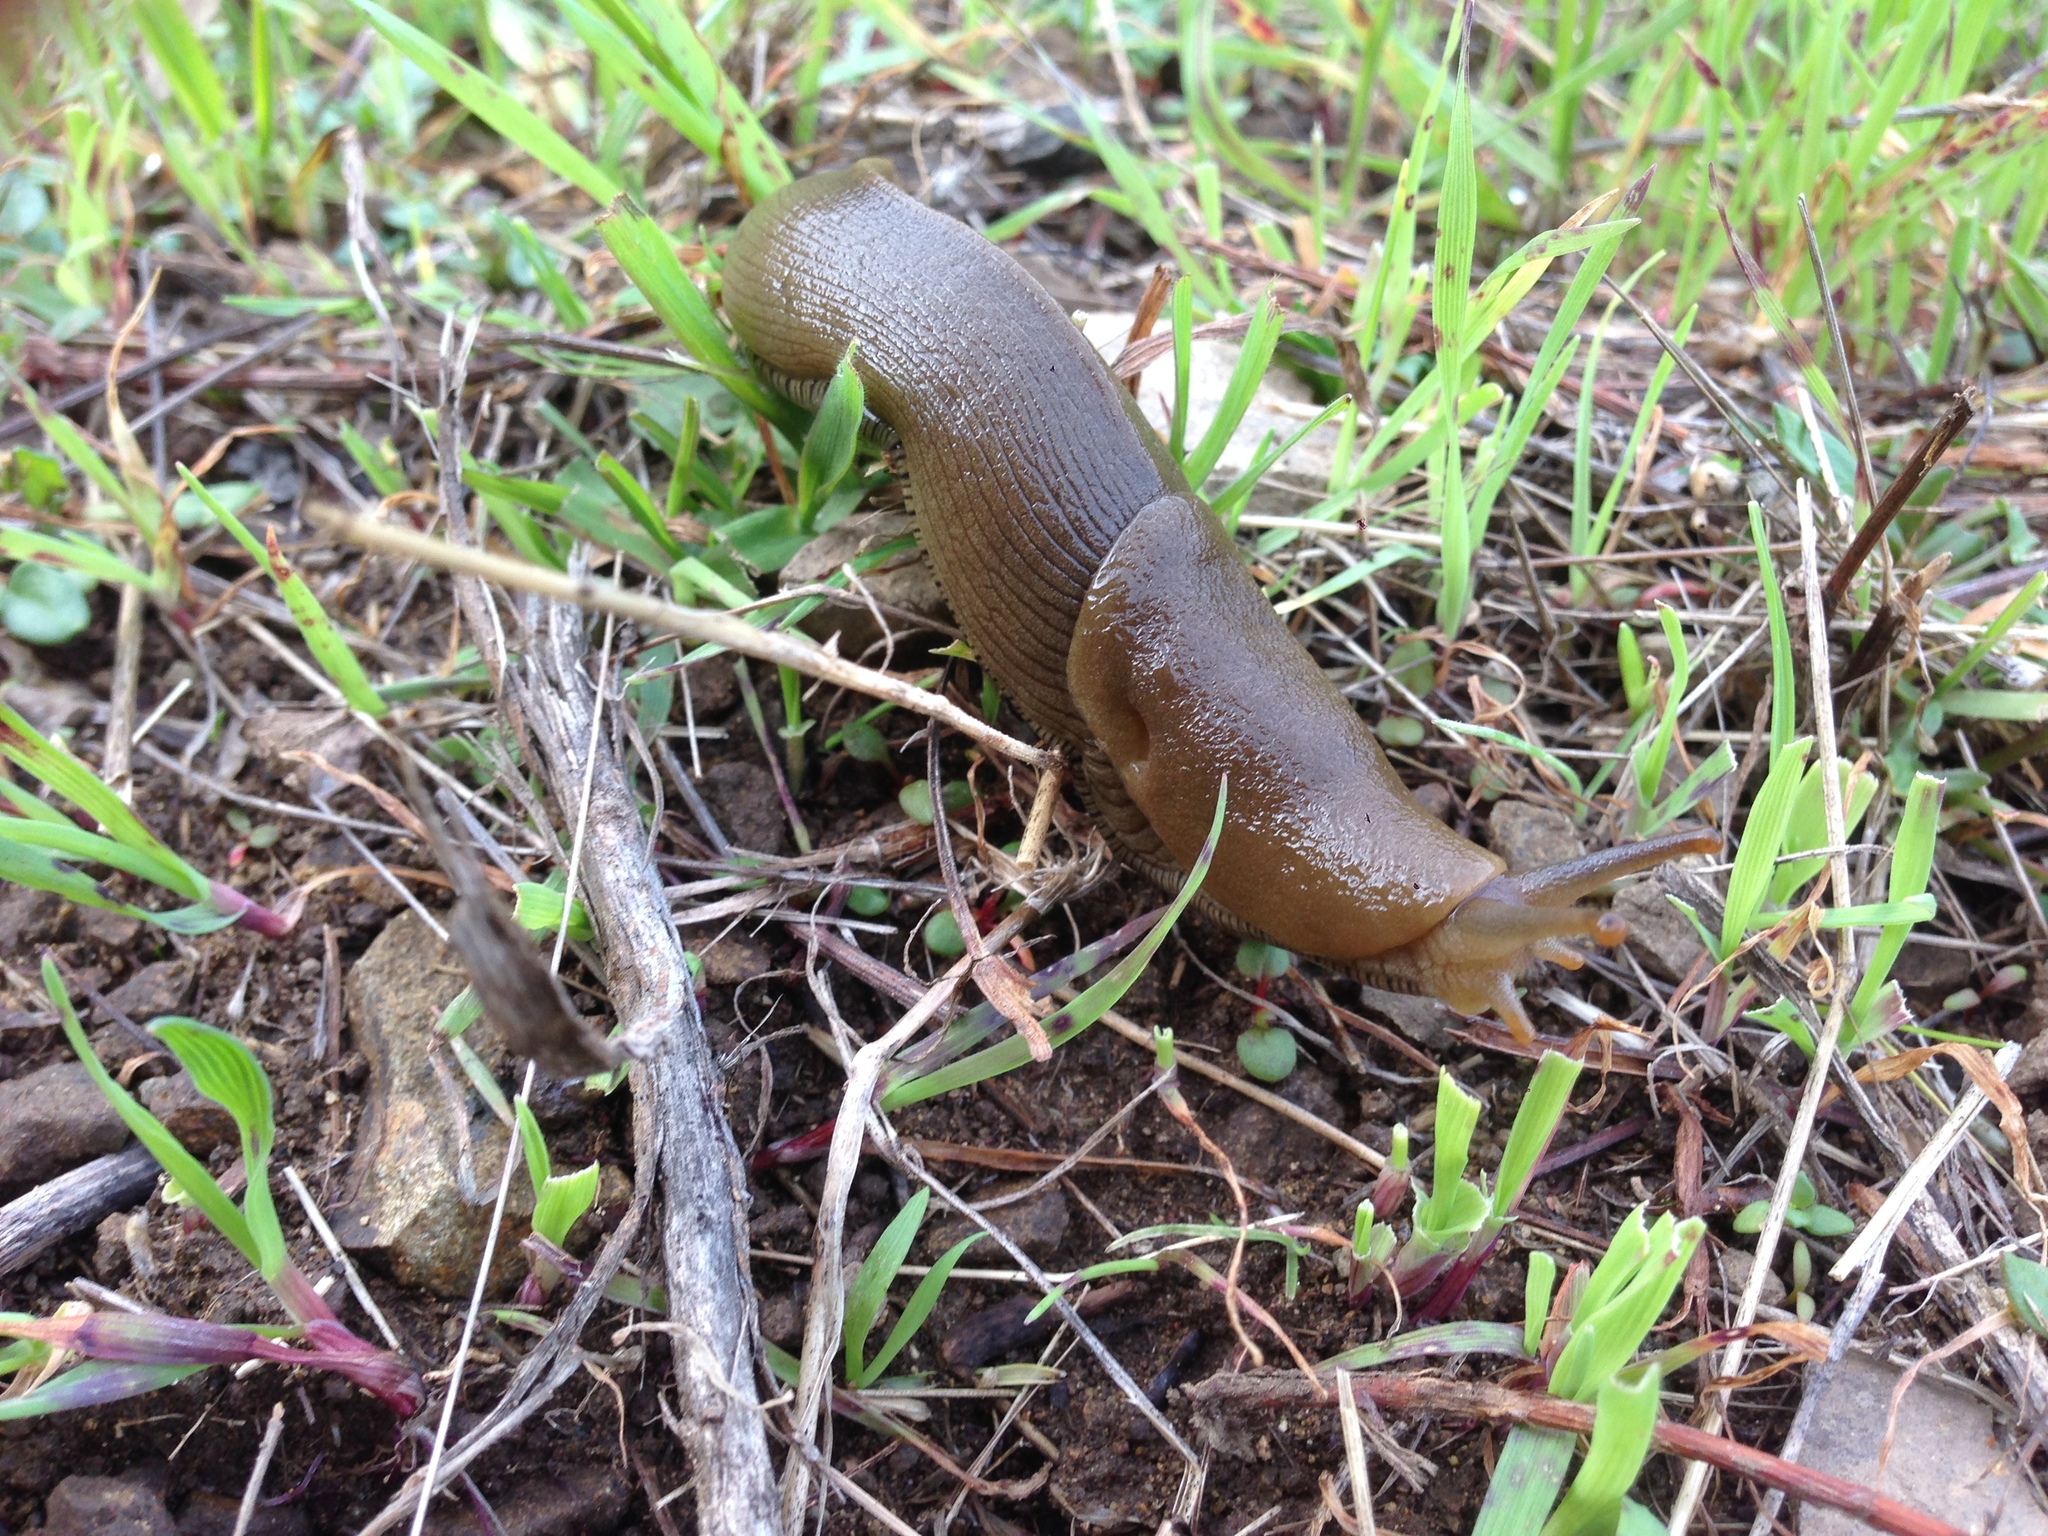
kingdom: Animalia
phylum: Mollusca
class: Gastropoda
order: Stylommatophora
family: Ariolimacidae
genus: Ariolimax
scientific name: Ariolimax buttoni
